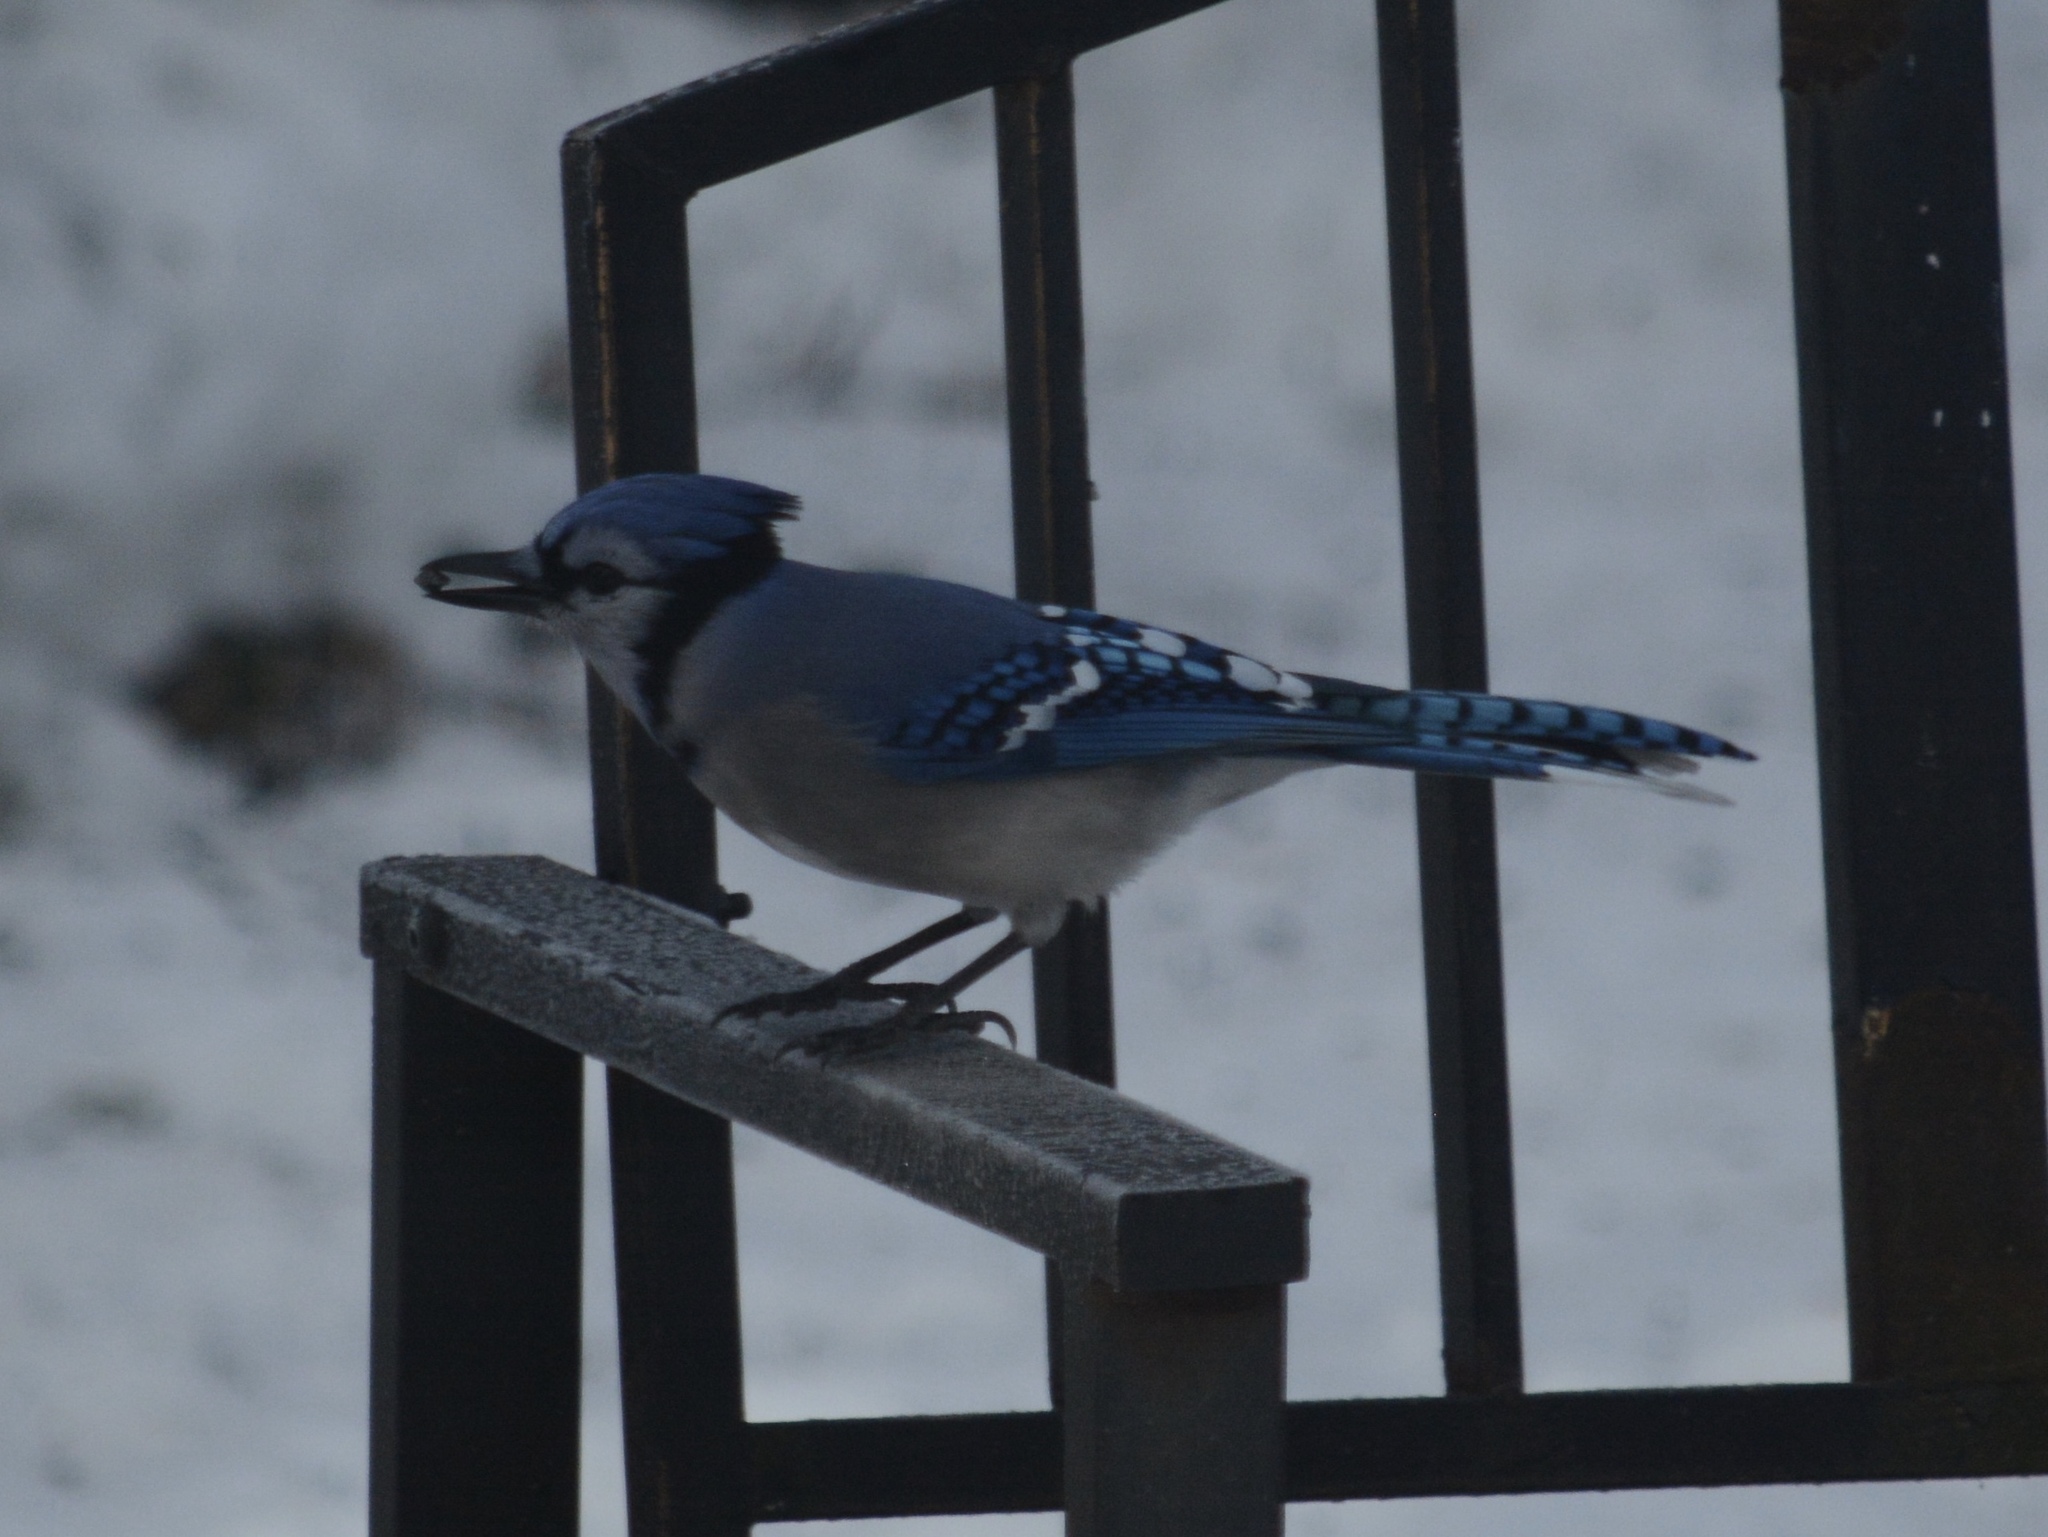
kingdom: Animalia
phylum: Chordata
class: Aves
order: Passeriformes
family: Corvidae
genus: Cyanocitta
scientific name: Cyanocitta cristata
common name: Blue jay
